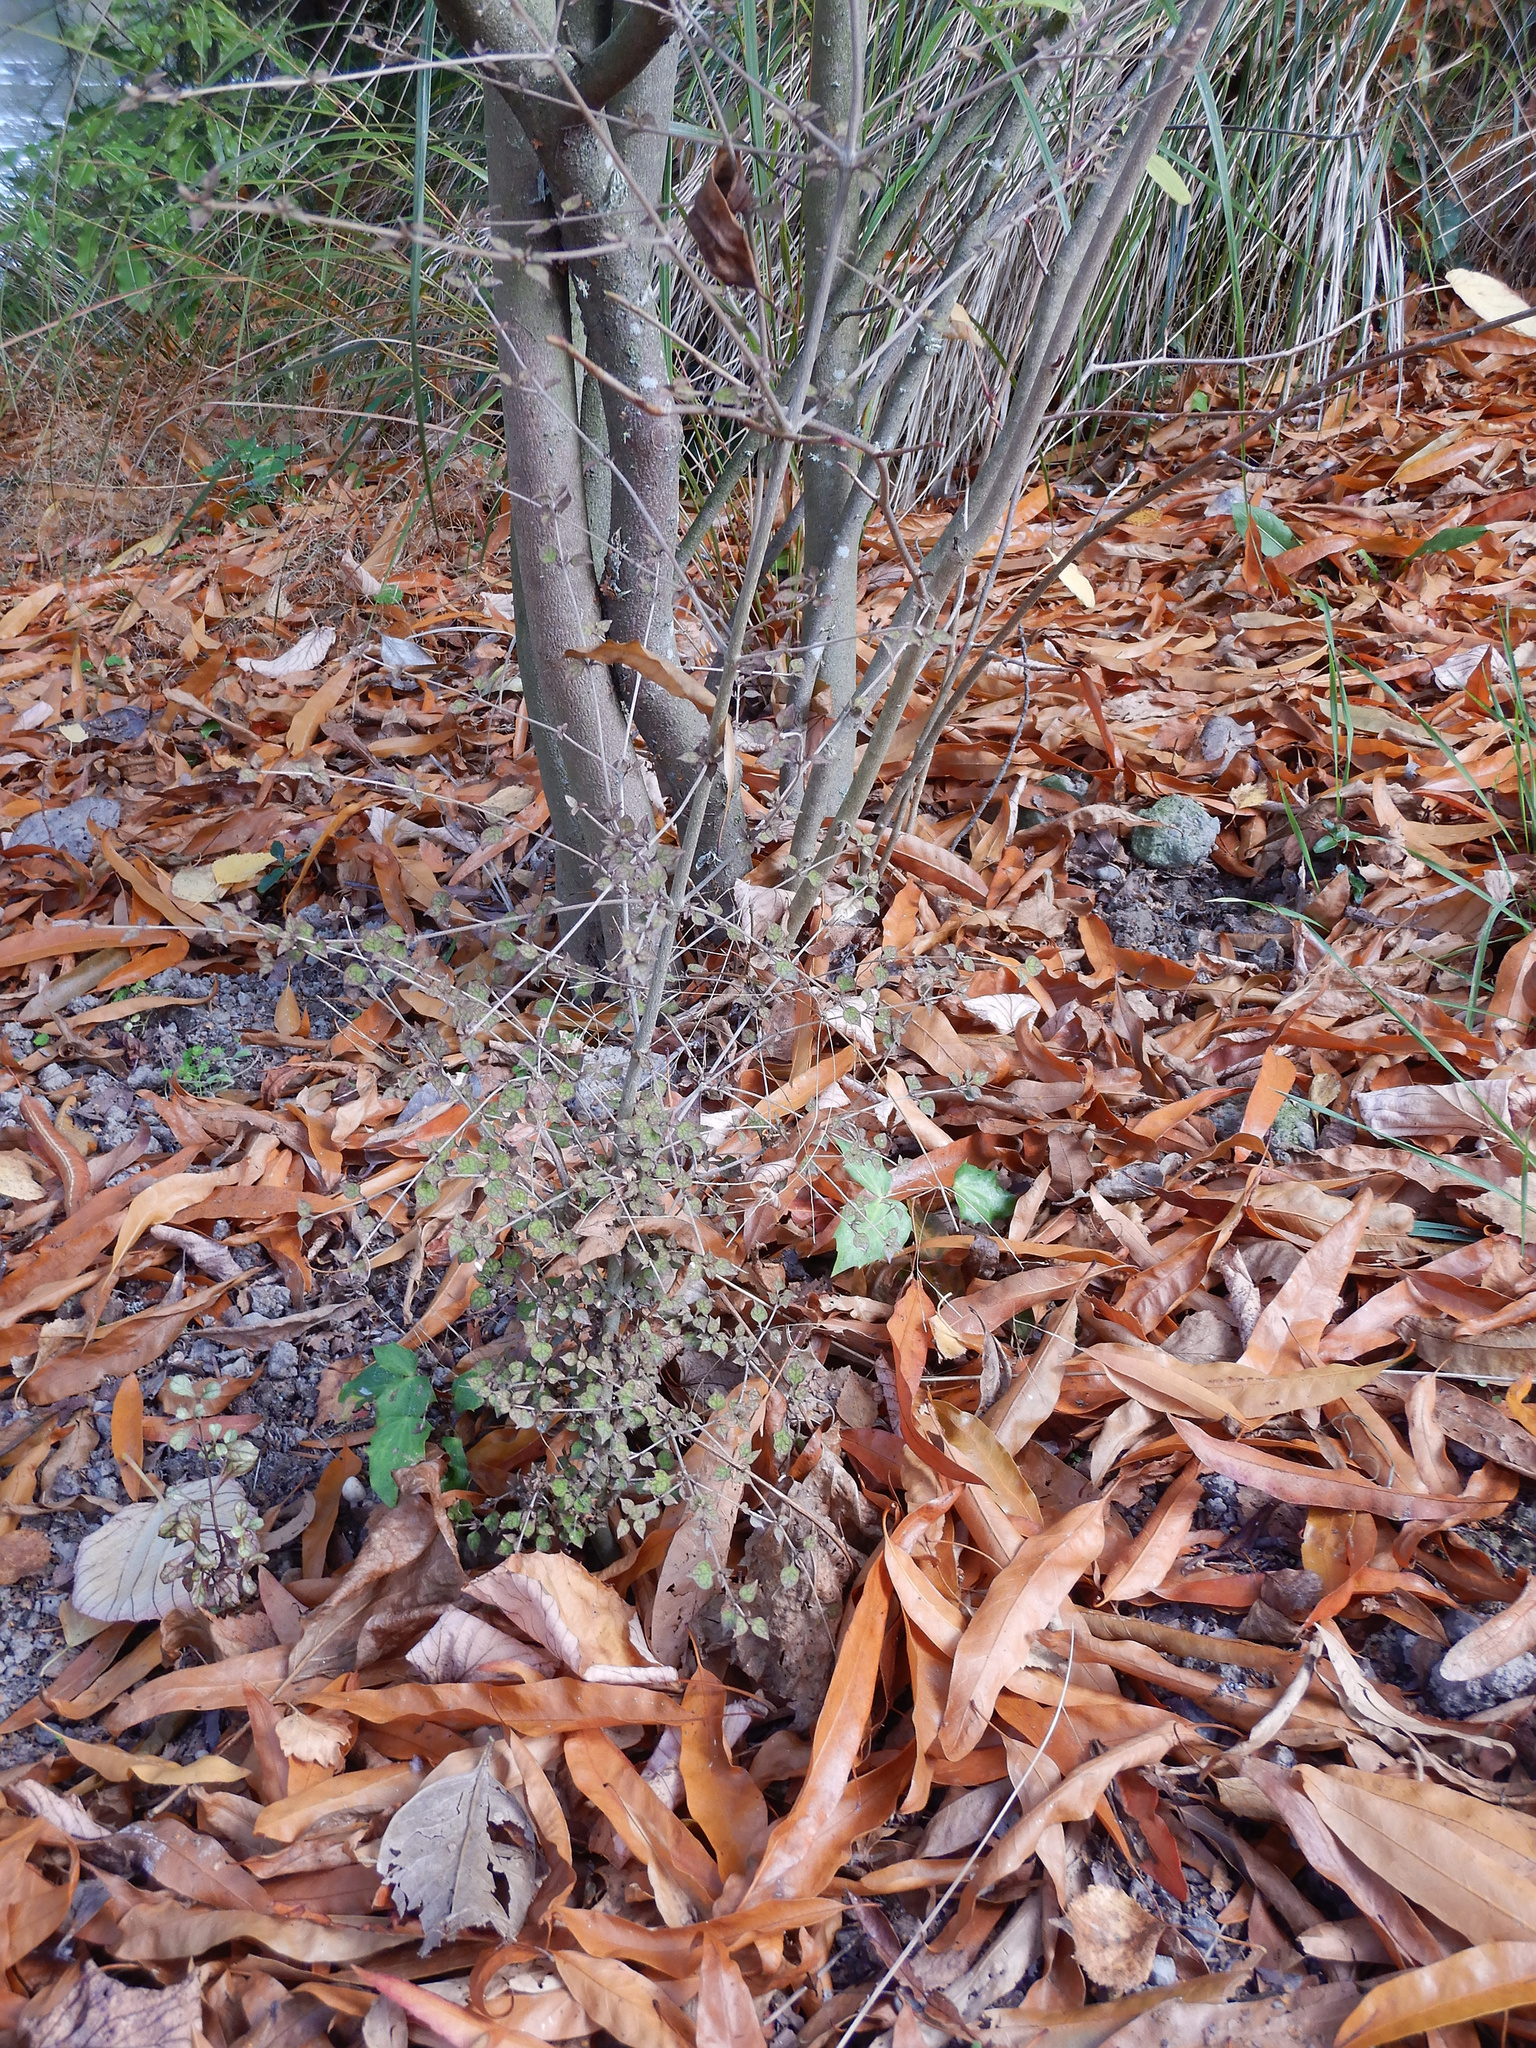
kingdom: Plantae
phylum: Tracheophyta
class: Magnoliopsida
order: Gentianales
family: Rubiaceae
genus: Coprosma
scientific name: Coprosma areolata
